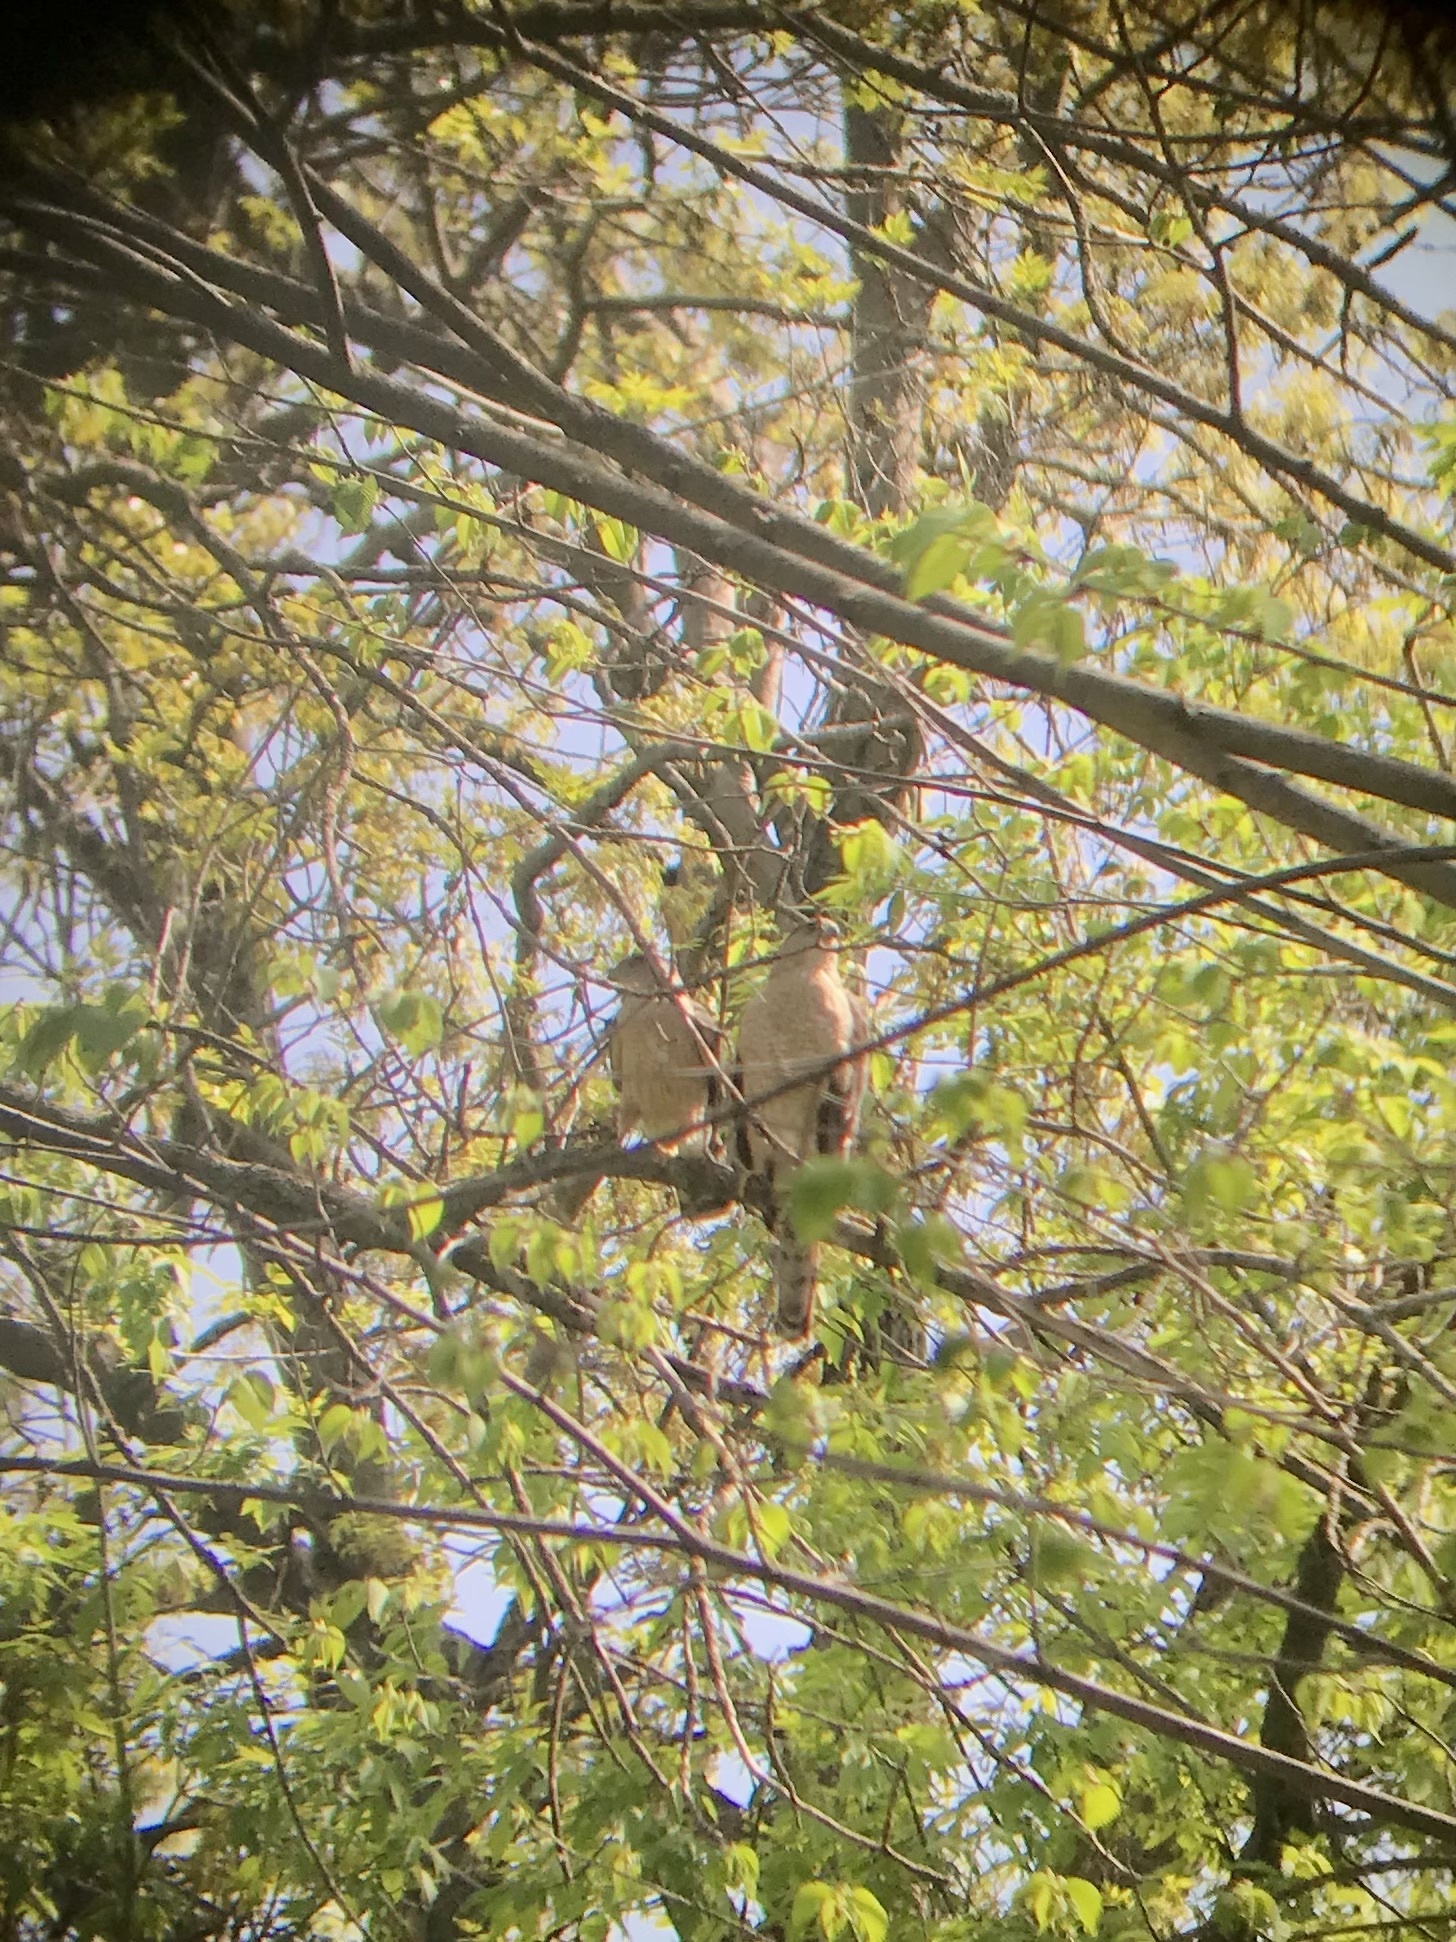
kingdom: Animalia
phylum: Chordata
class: Aves
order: Accipitriformes
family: Accipitridae
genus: Accipiter
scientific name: Accipiter cooperii
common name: Cooper's hawk
